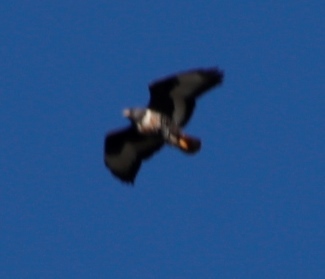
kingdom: Animalia
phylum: Chordata
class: Aves
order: Accipitriformes
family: Accipitridae
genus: Buteo
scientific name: Buteo rufofuscus
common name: Jackal buzzard
